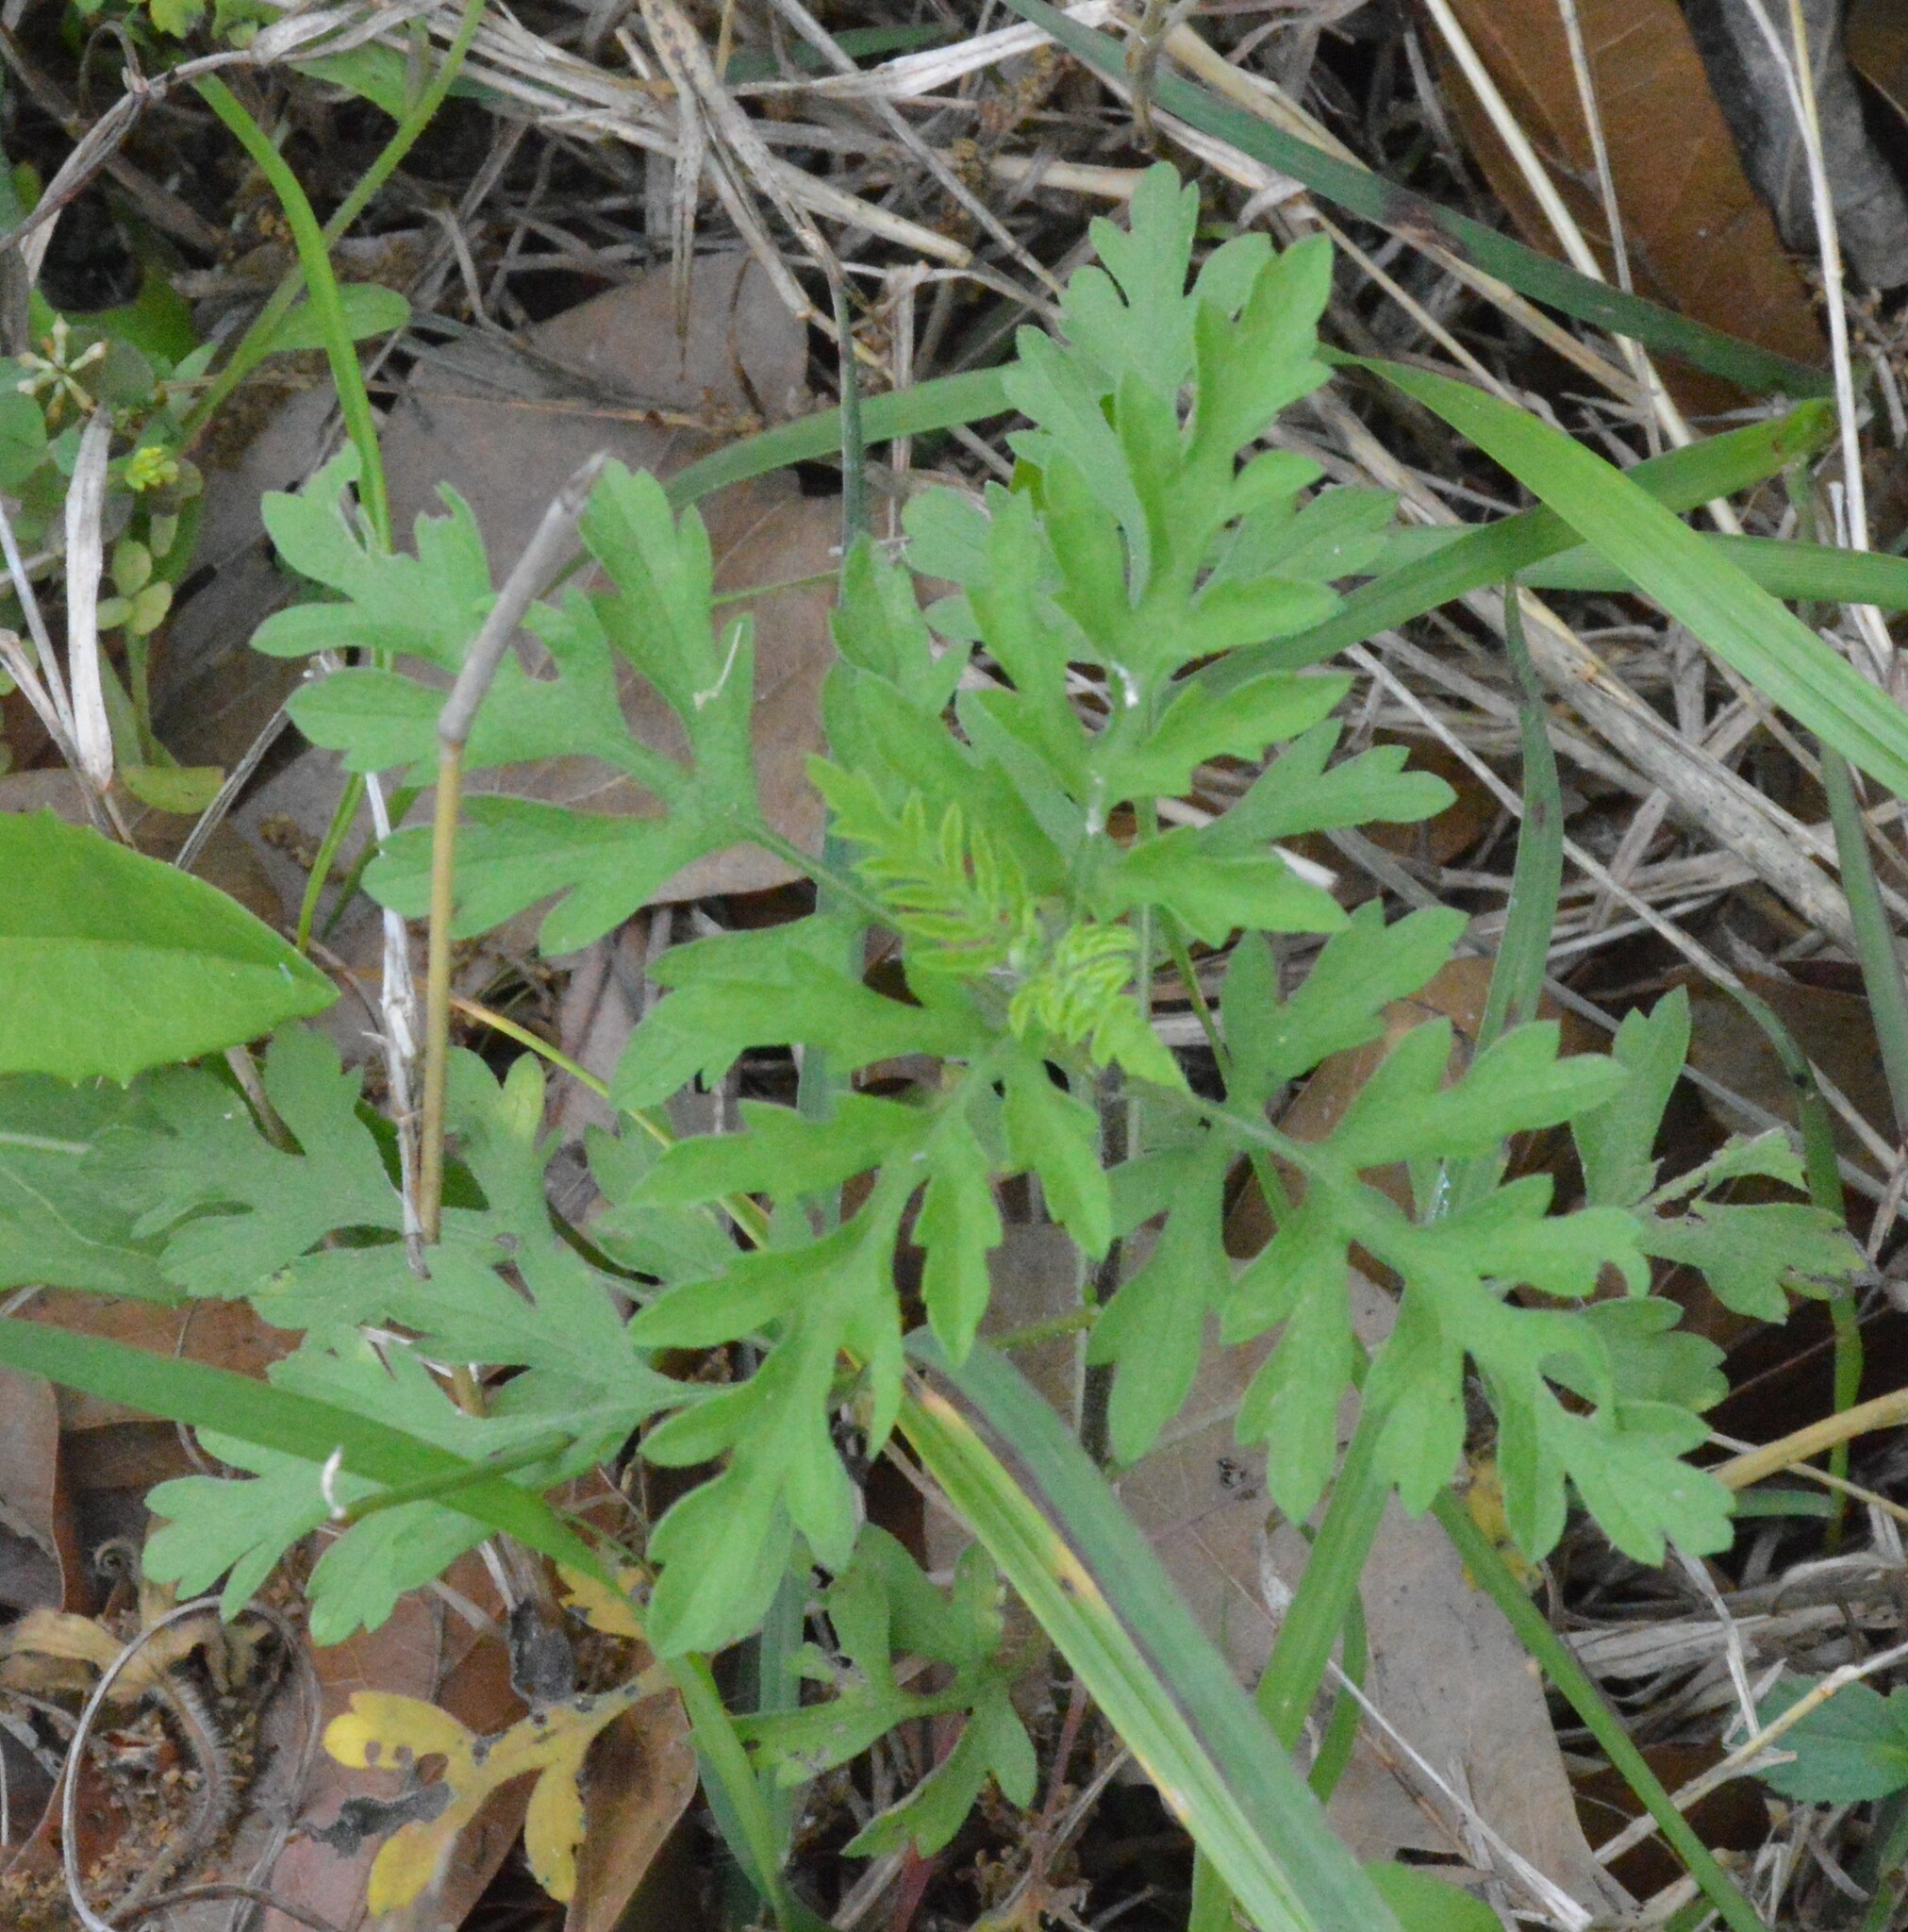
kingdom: Plantae
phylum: Tracheophyta
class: Magnoliopsida
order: Asterales
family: Asteraceae
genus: Ambrosia
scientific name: Ambrosia psilostachya
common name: Perennial ragweed
